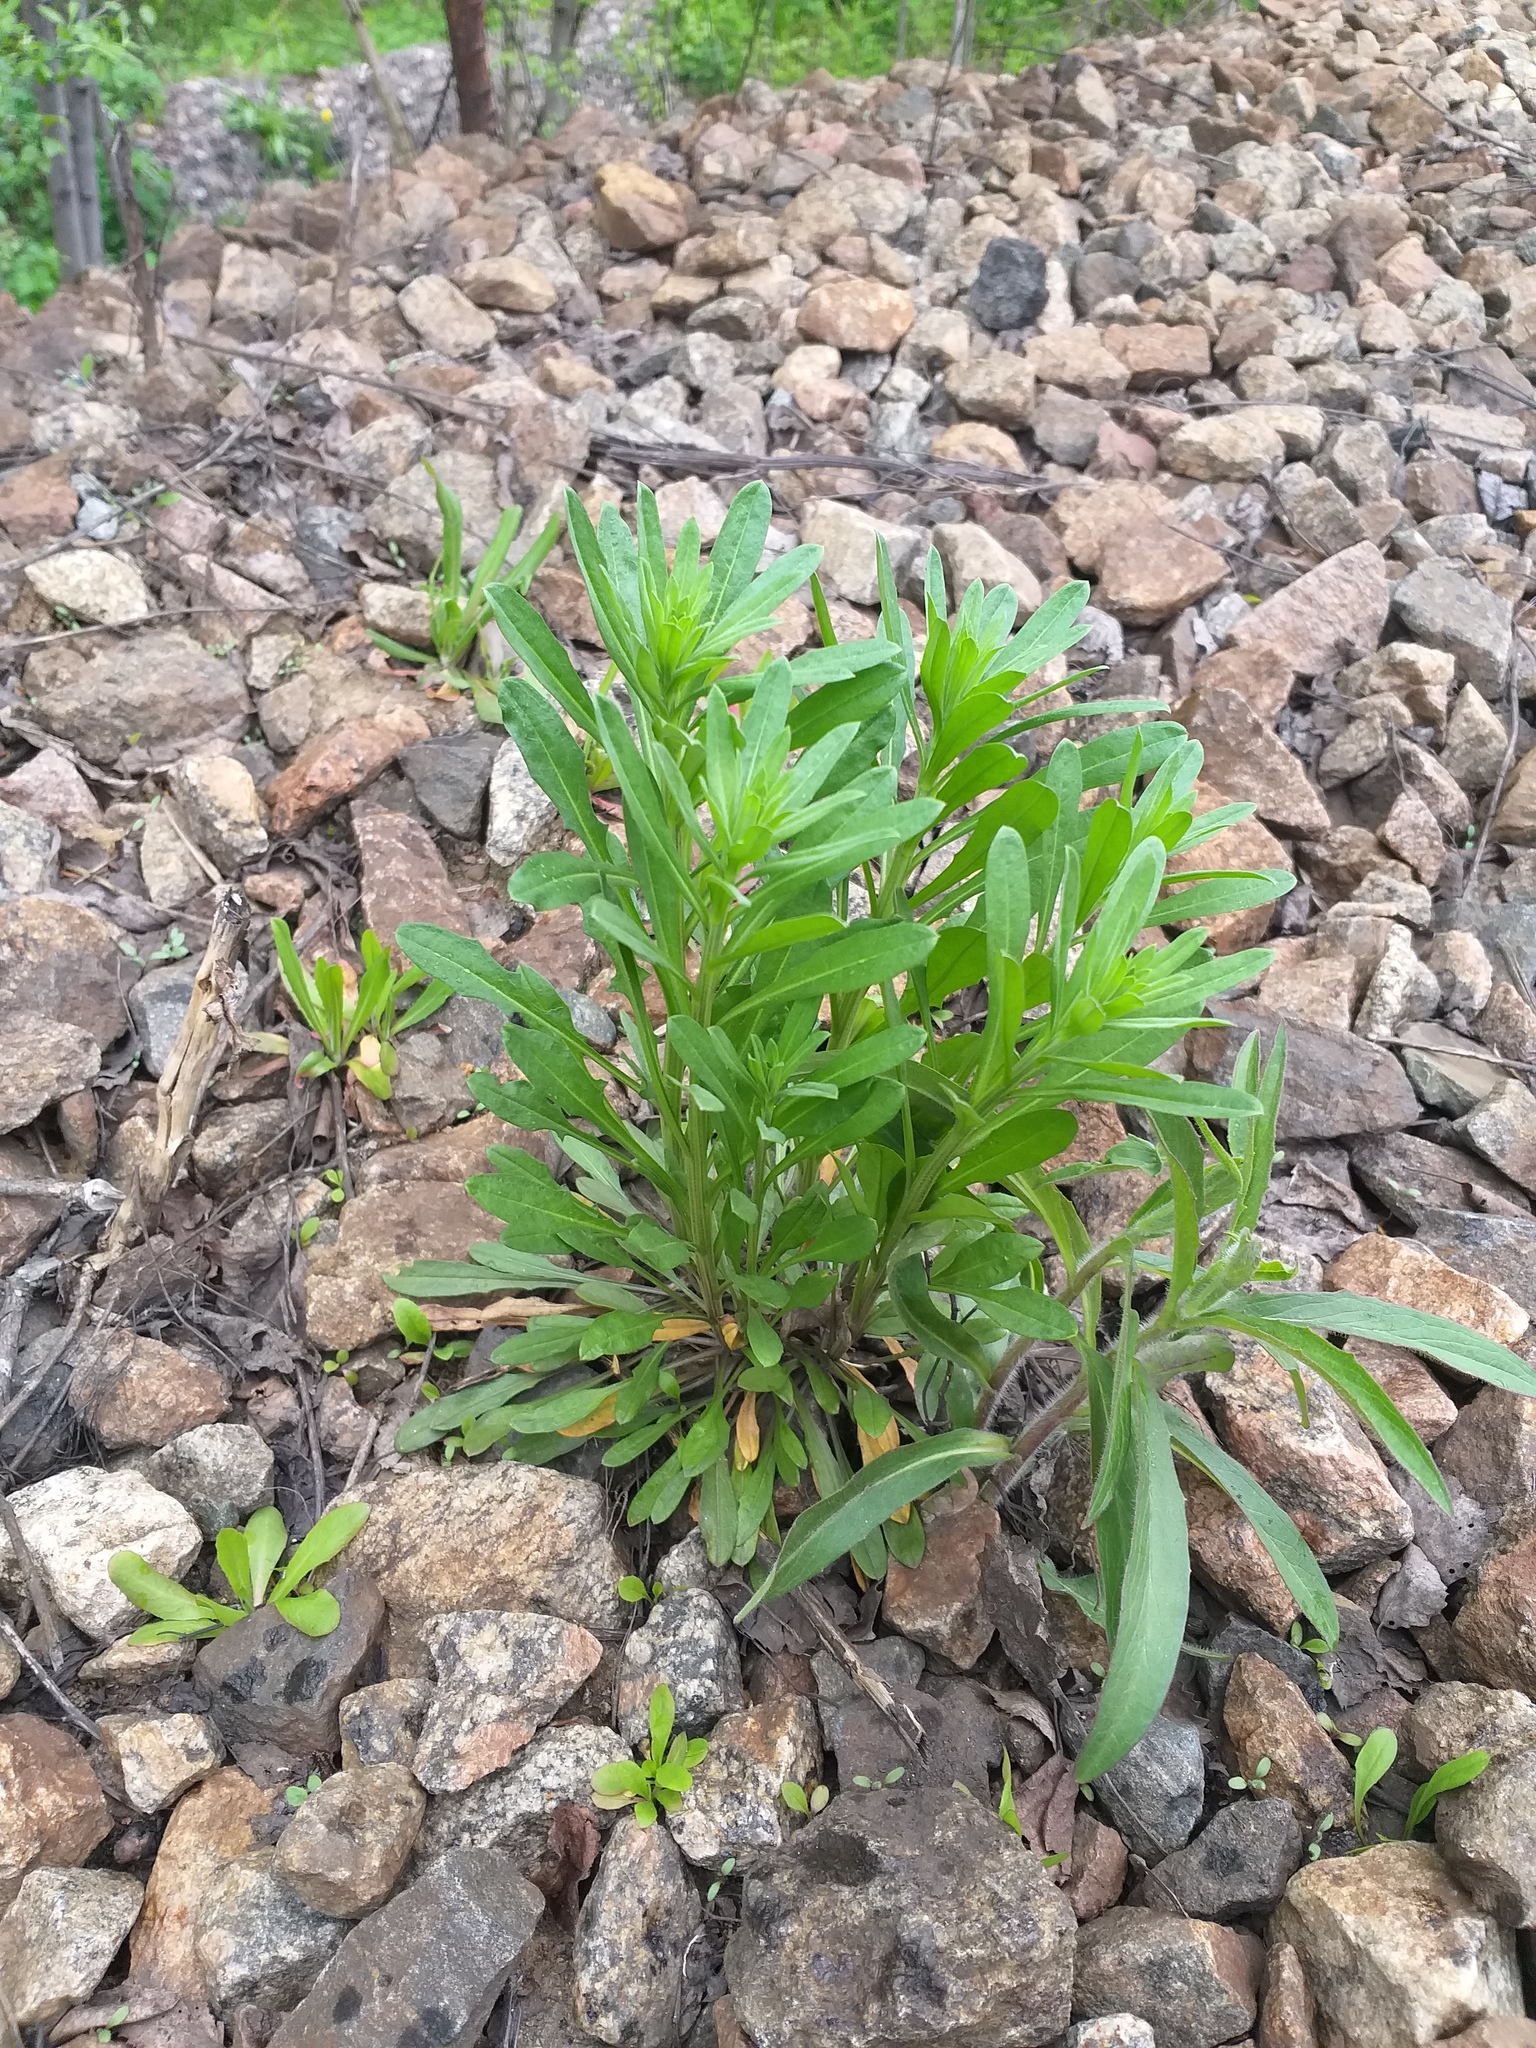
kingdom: Plantae
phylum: Tracheophyta
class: Magnoliopsida
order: Brassicales
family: Brassicaceae
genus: Erysimum
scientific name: Erysimum hieraciifolium
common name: European wallflower
